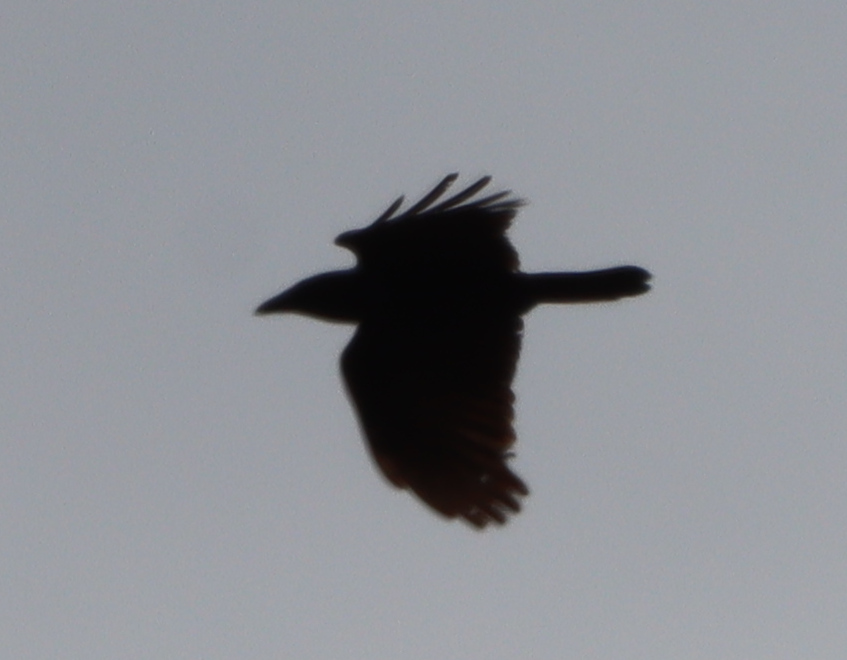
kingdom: Animalia
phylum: Chordata
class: Aves
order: Passeriformes
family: Corvidae
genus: Corvus
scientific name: Corvus brachyrhynchos
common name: American crow
